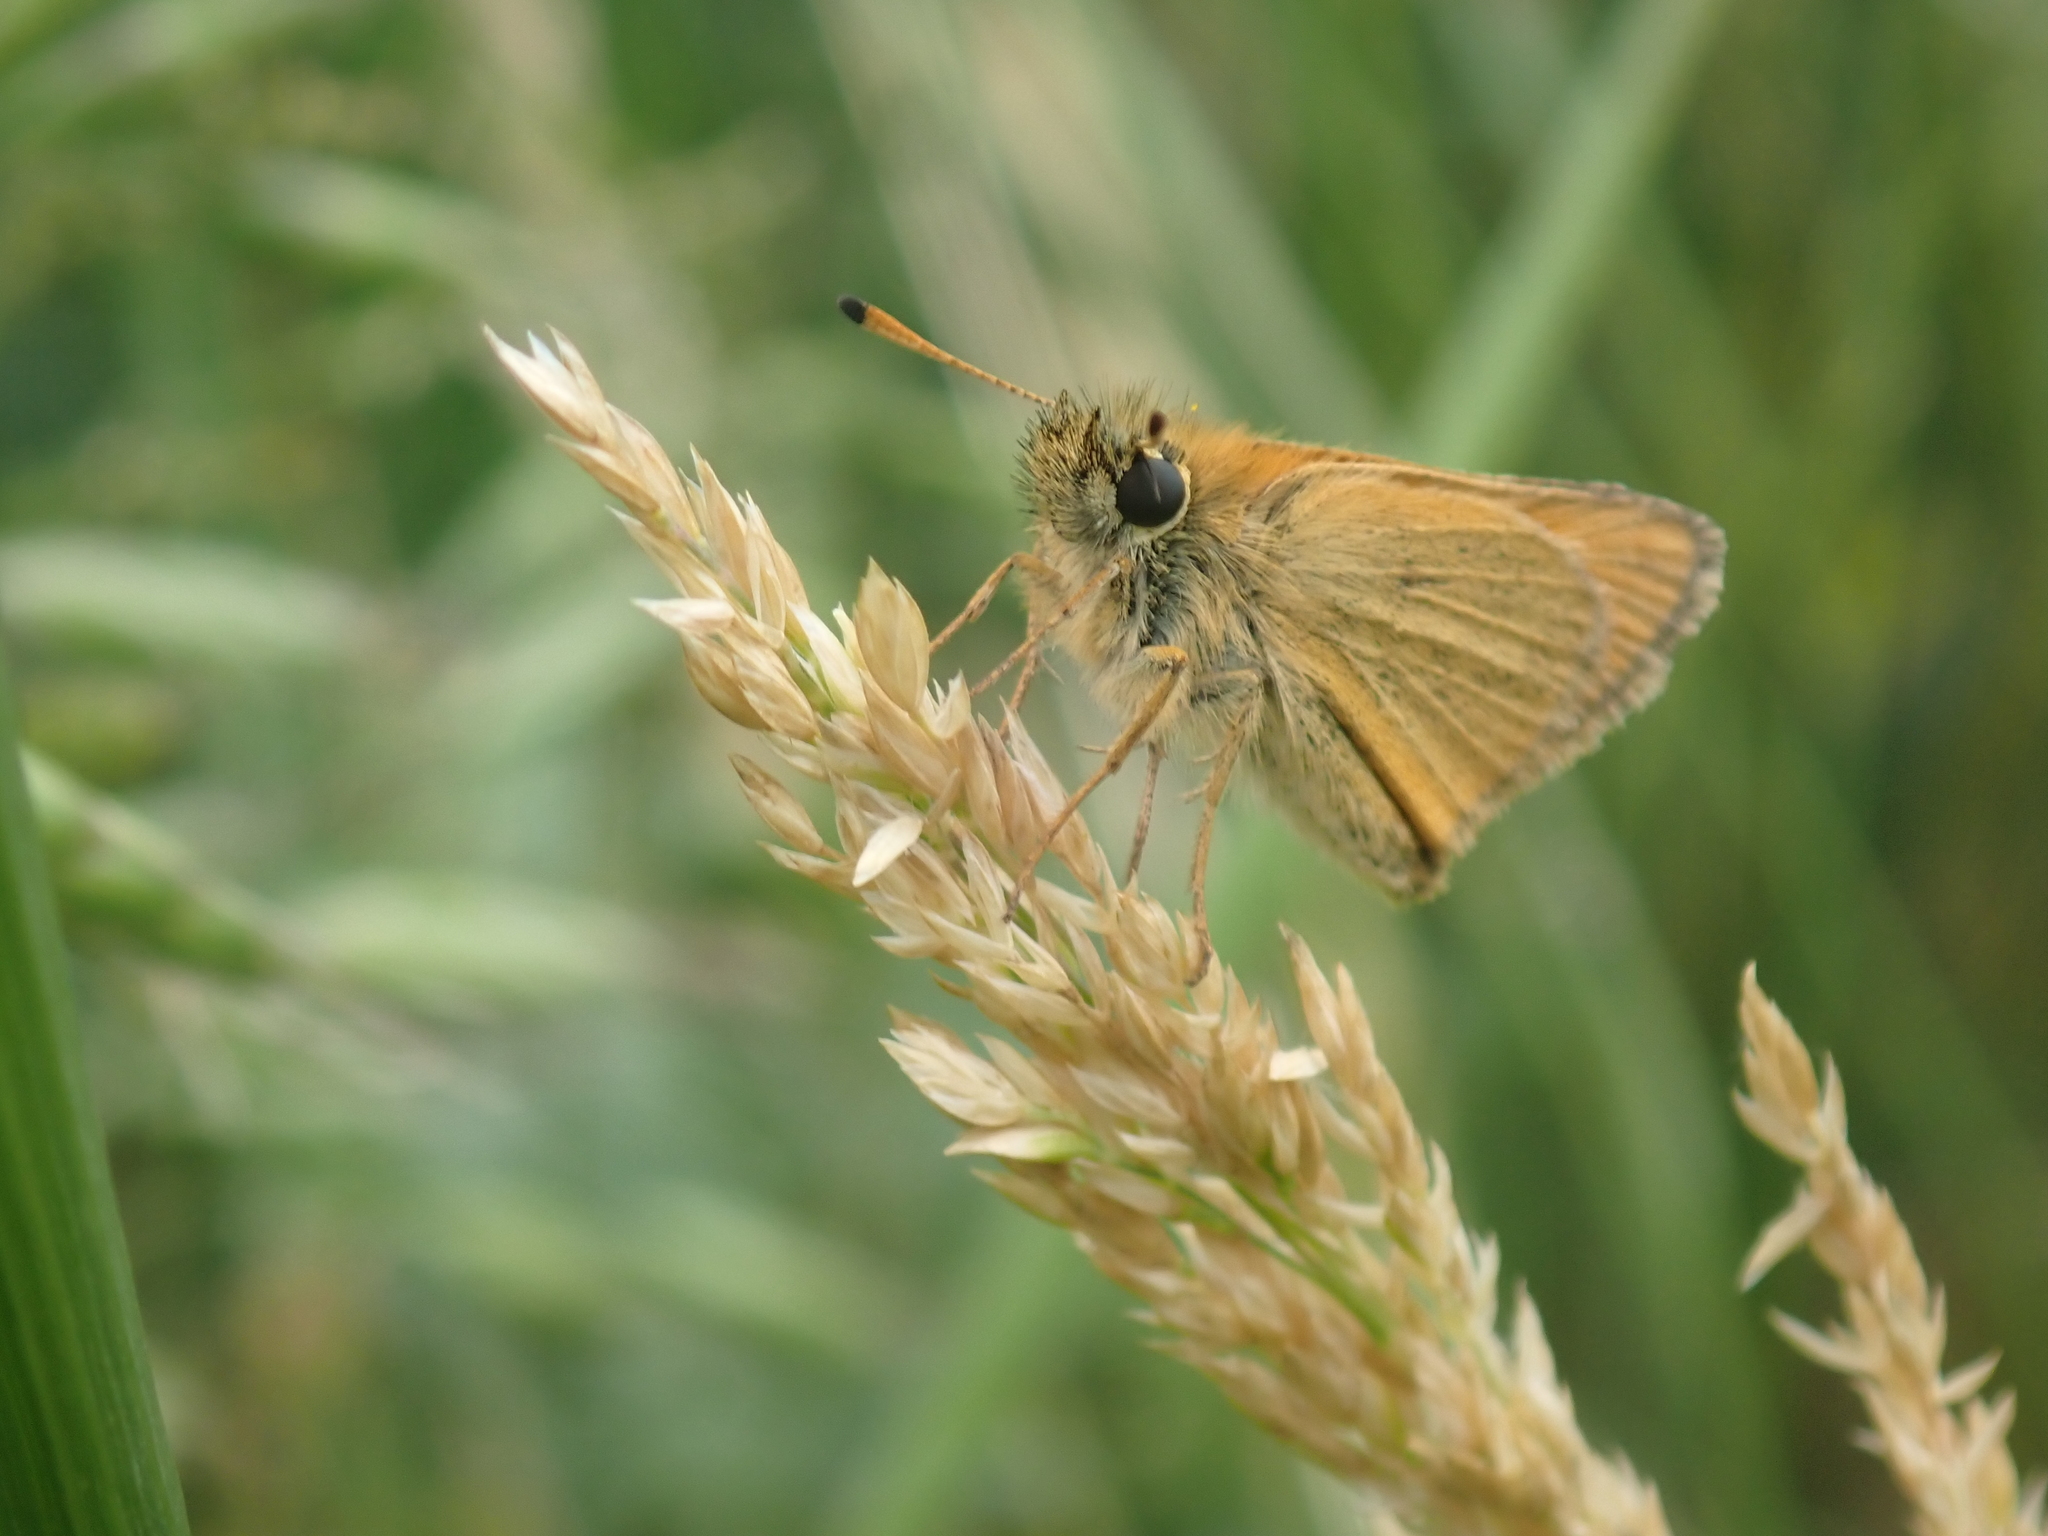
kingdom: Animalia
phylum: Arthropoda
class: Insecta
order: Lepidoptera
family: Hesperiidae
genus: Thymelicus
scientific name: Thymelicus lineola
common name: Essex skipper
